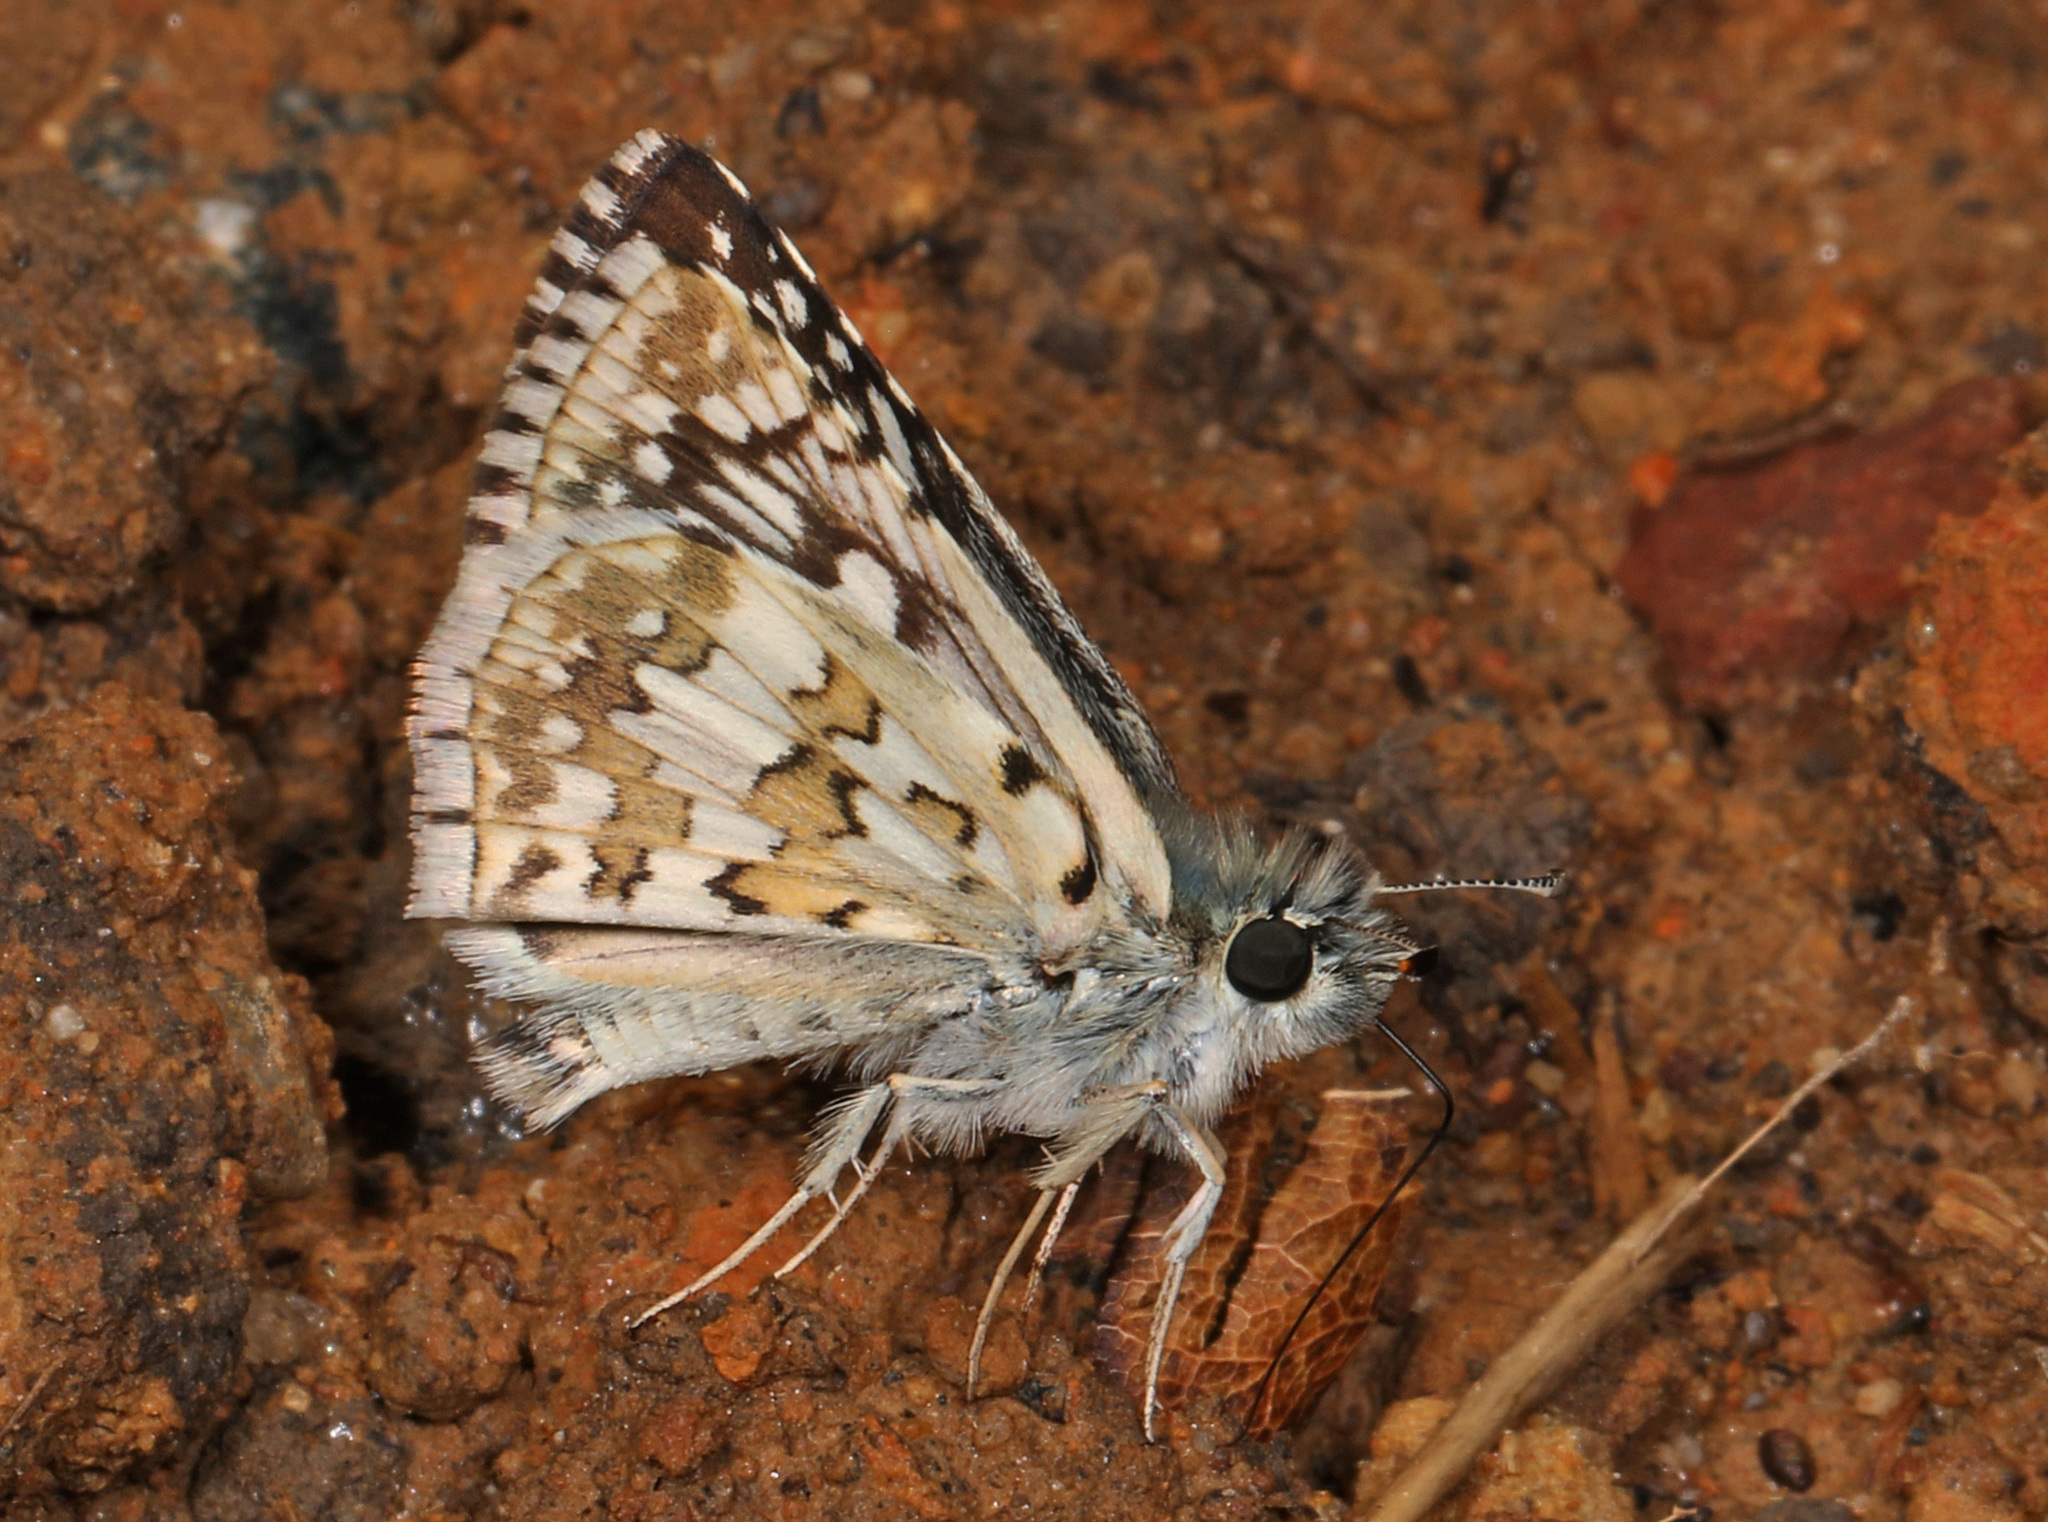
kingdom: Animalia
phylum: Arthropoda
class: Insecta
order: Lepidoptera
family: Hesperiidae
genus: Burnsius
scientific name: Burnsius communis
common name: Common checkered-skipper
